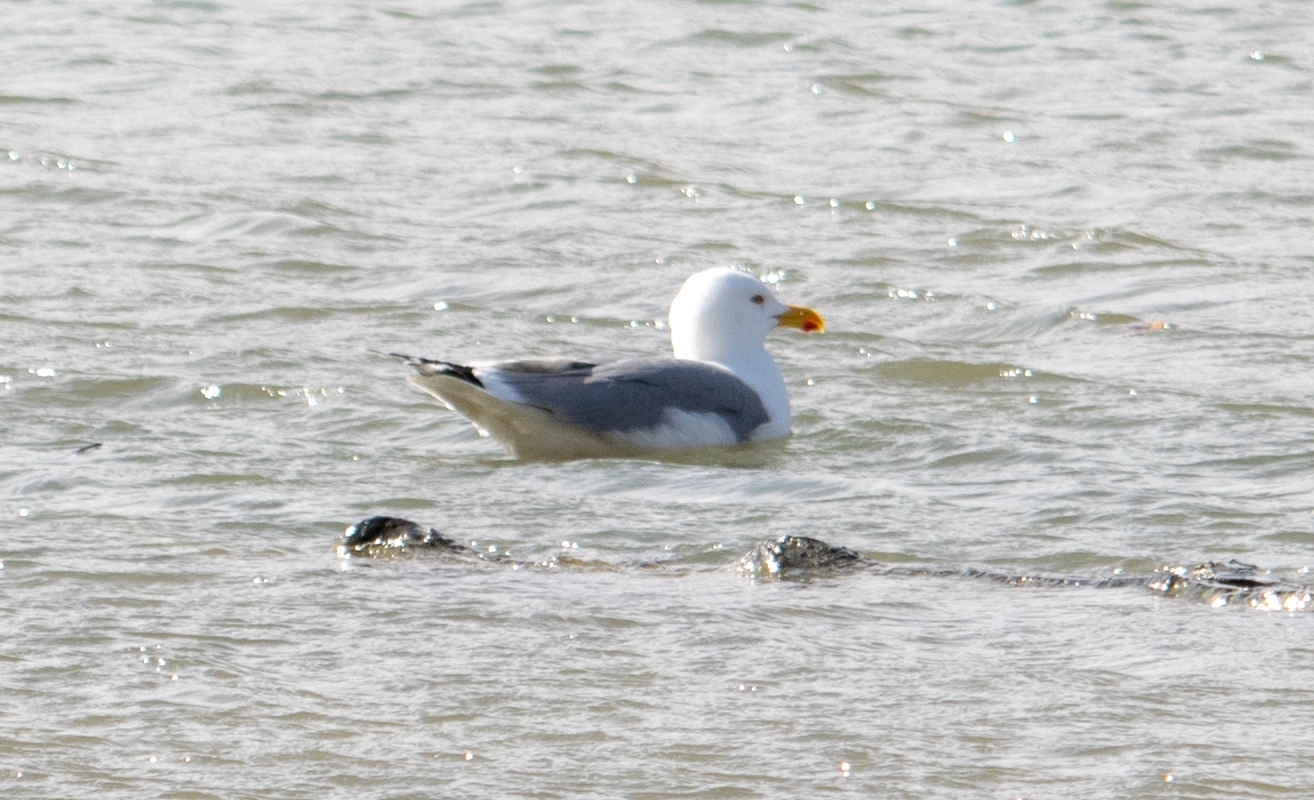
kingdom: Animalia
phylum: Chordata
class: Aves
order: Charadriiformes
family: Laridae
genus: Larus
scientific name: Larus michahellis
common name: Yellow-legged gull
